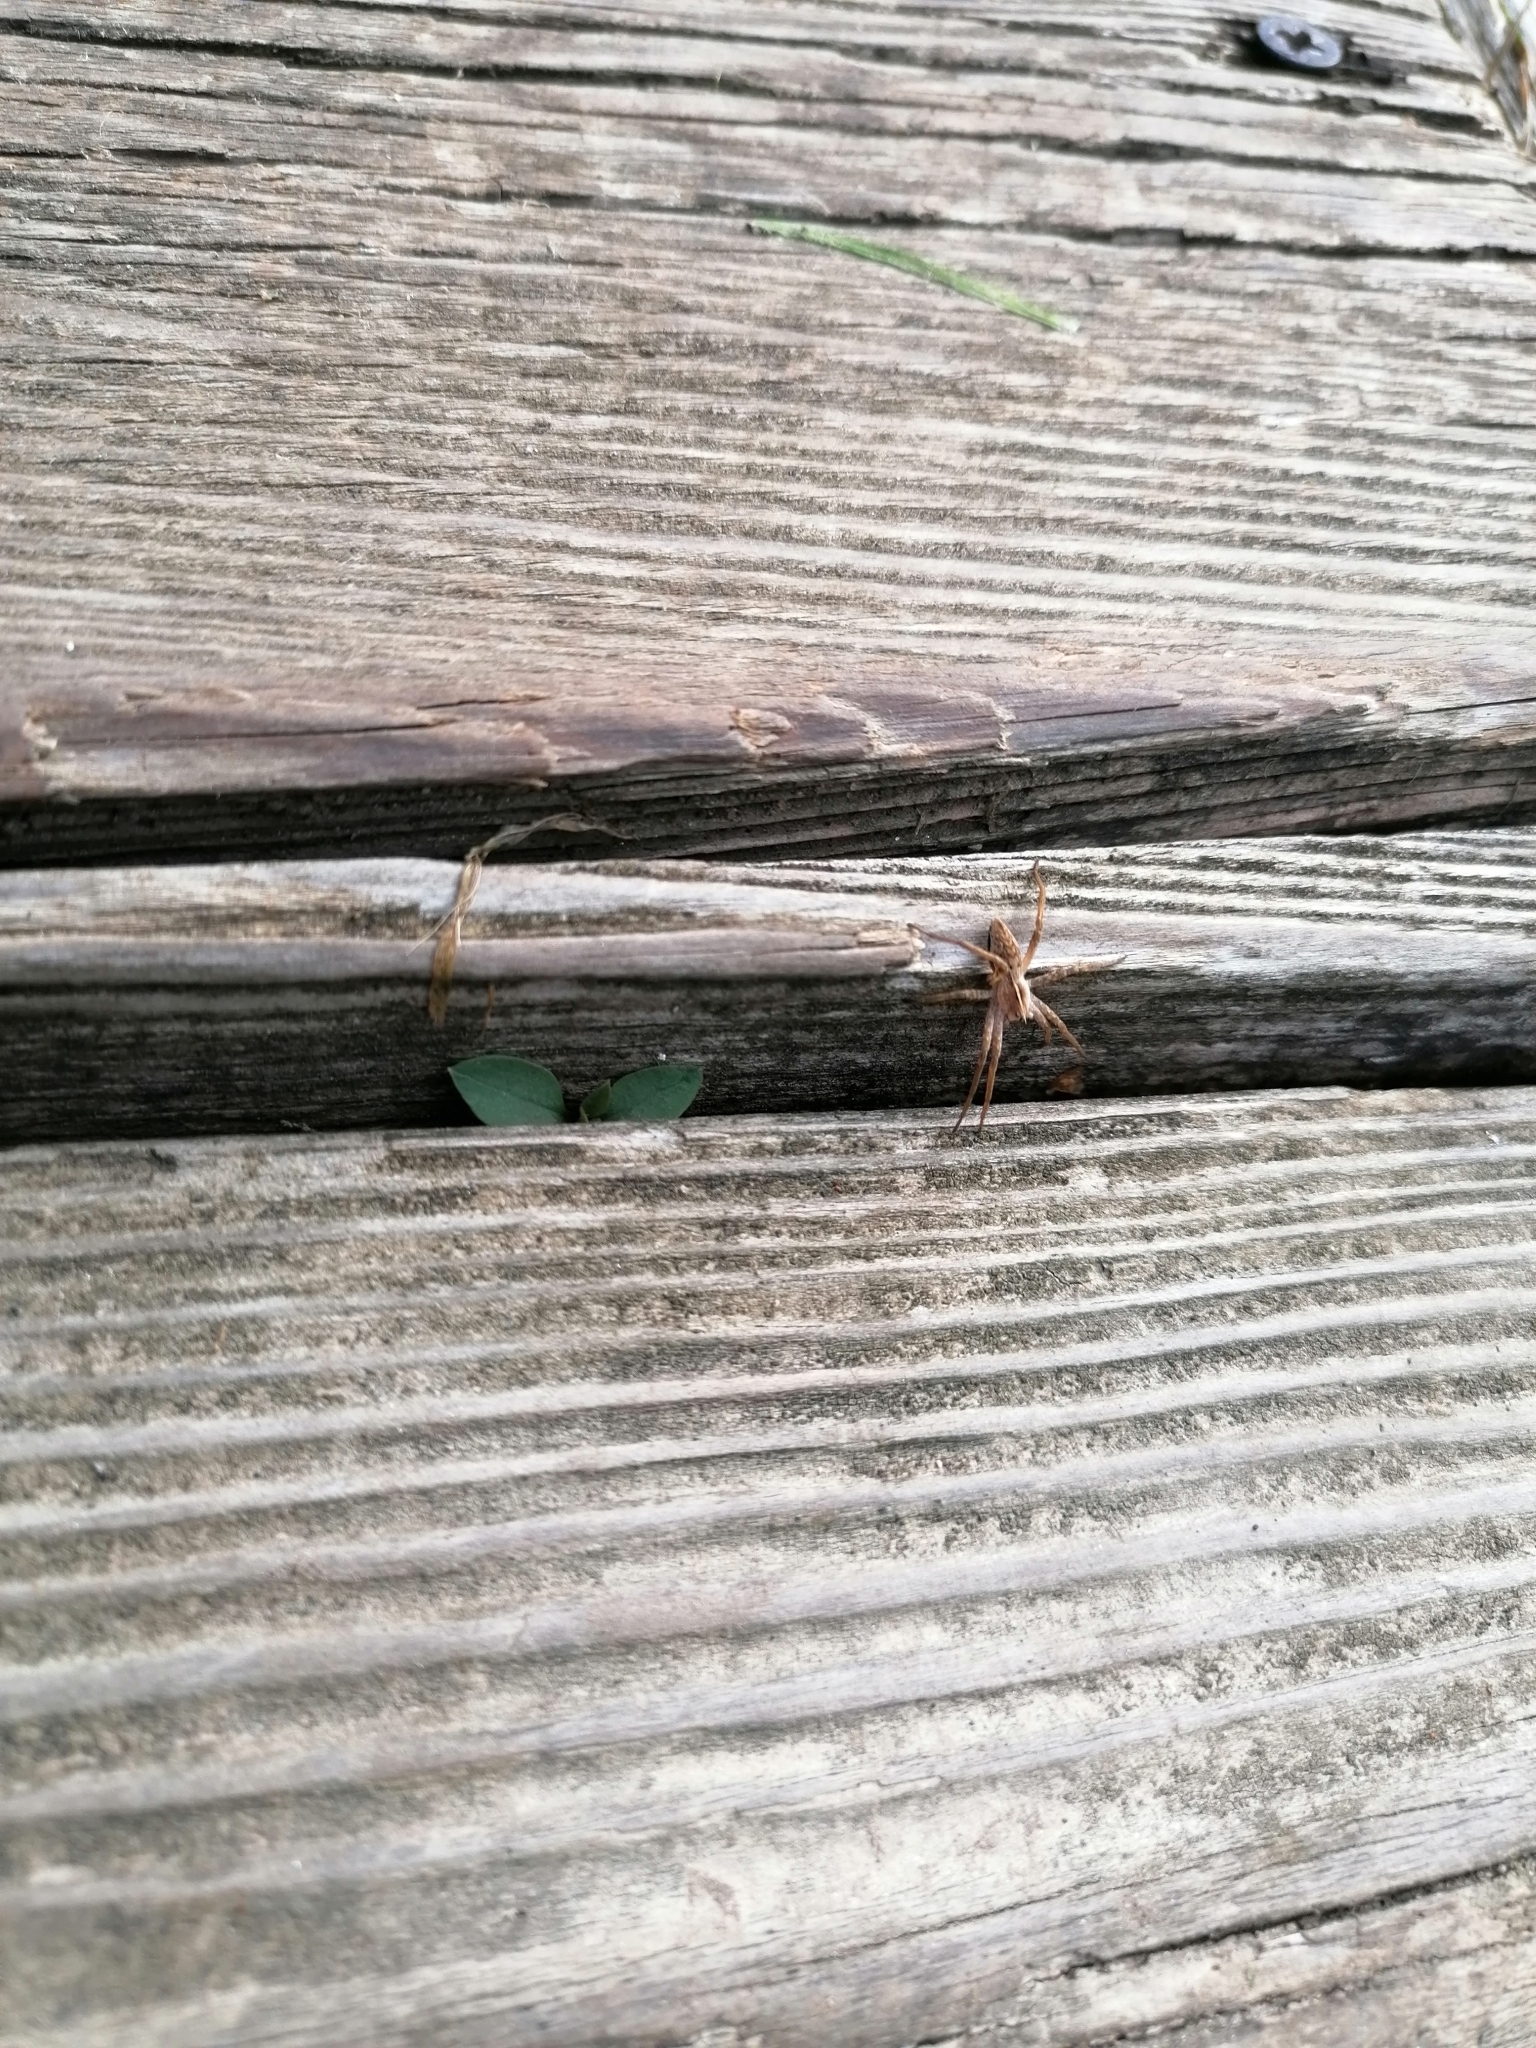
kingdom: Animalia
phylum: Arthropoda
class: Arachnida
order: Araneae
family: Pisauridae
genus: Pisaura
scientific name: Pisaura mirabilis
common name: Tent spider
